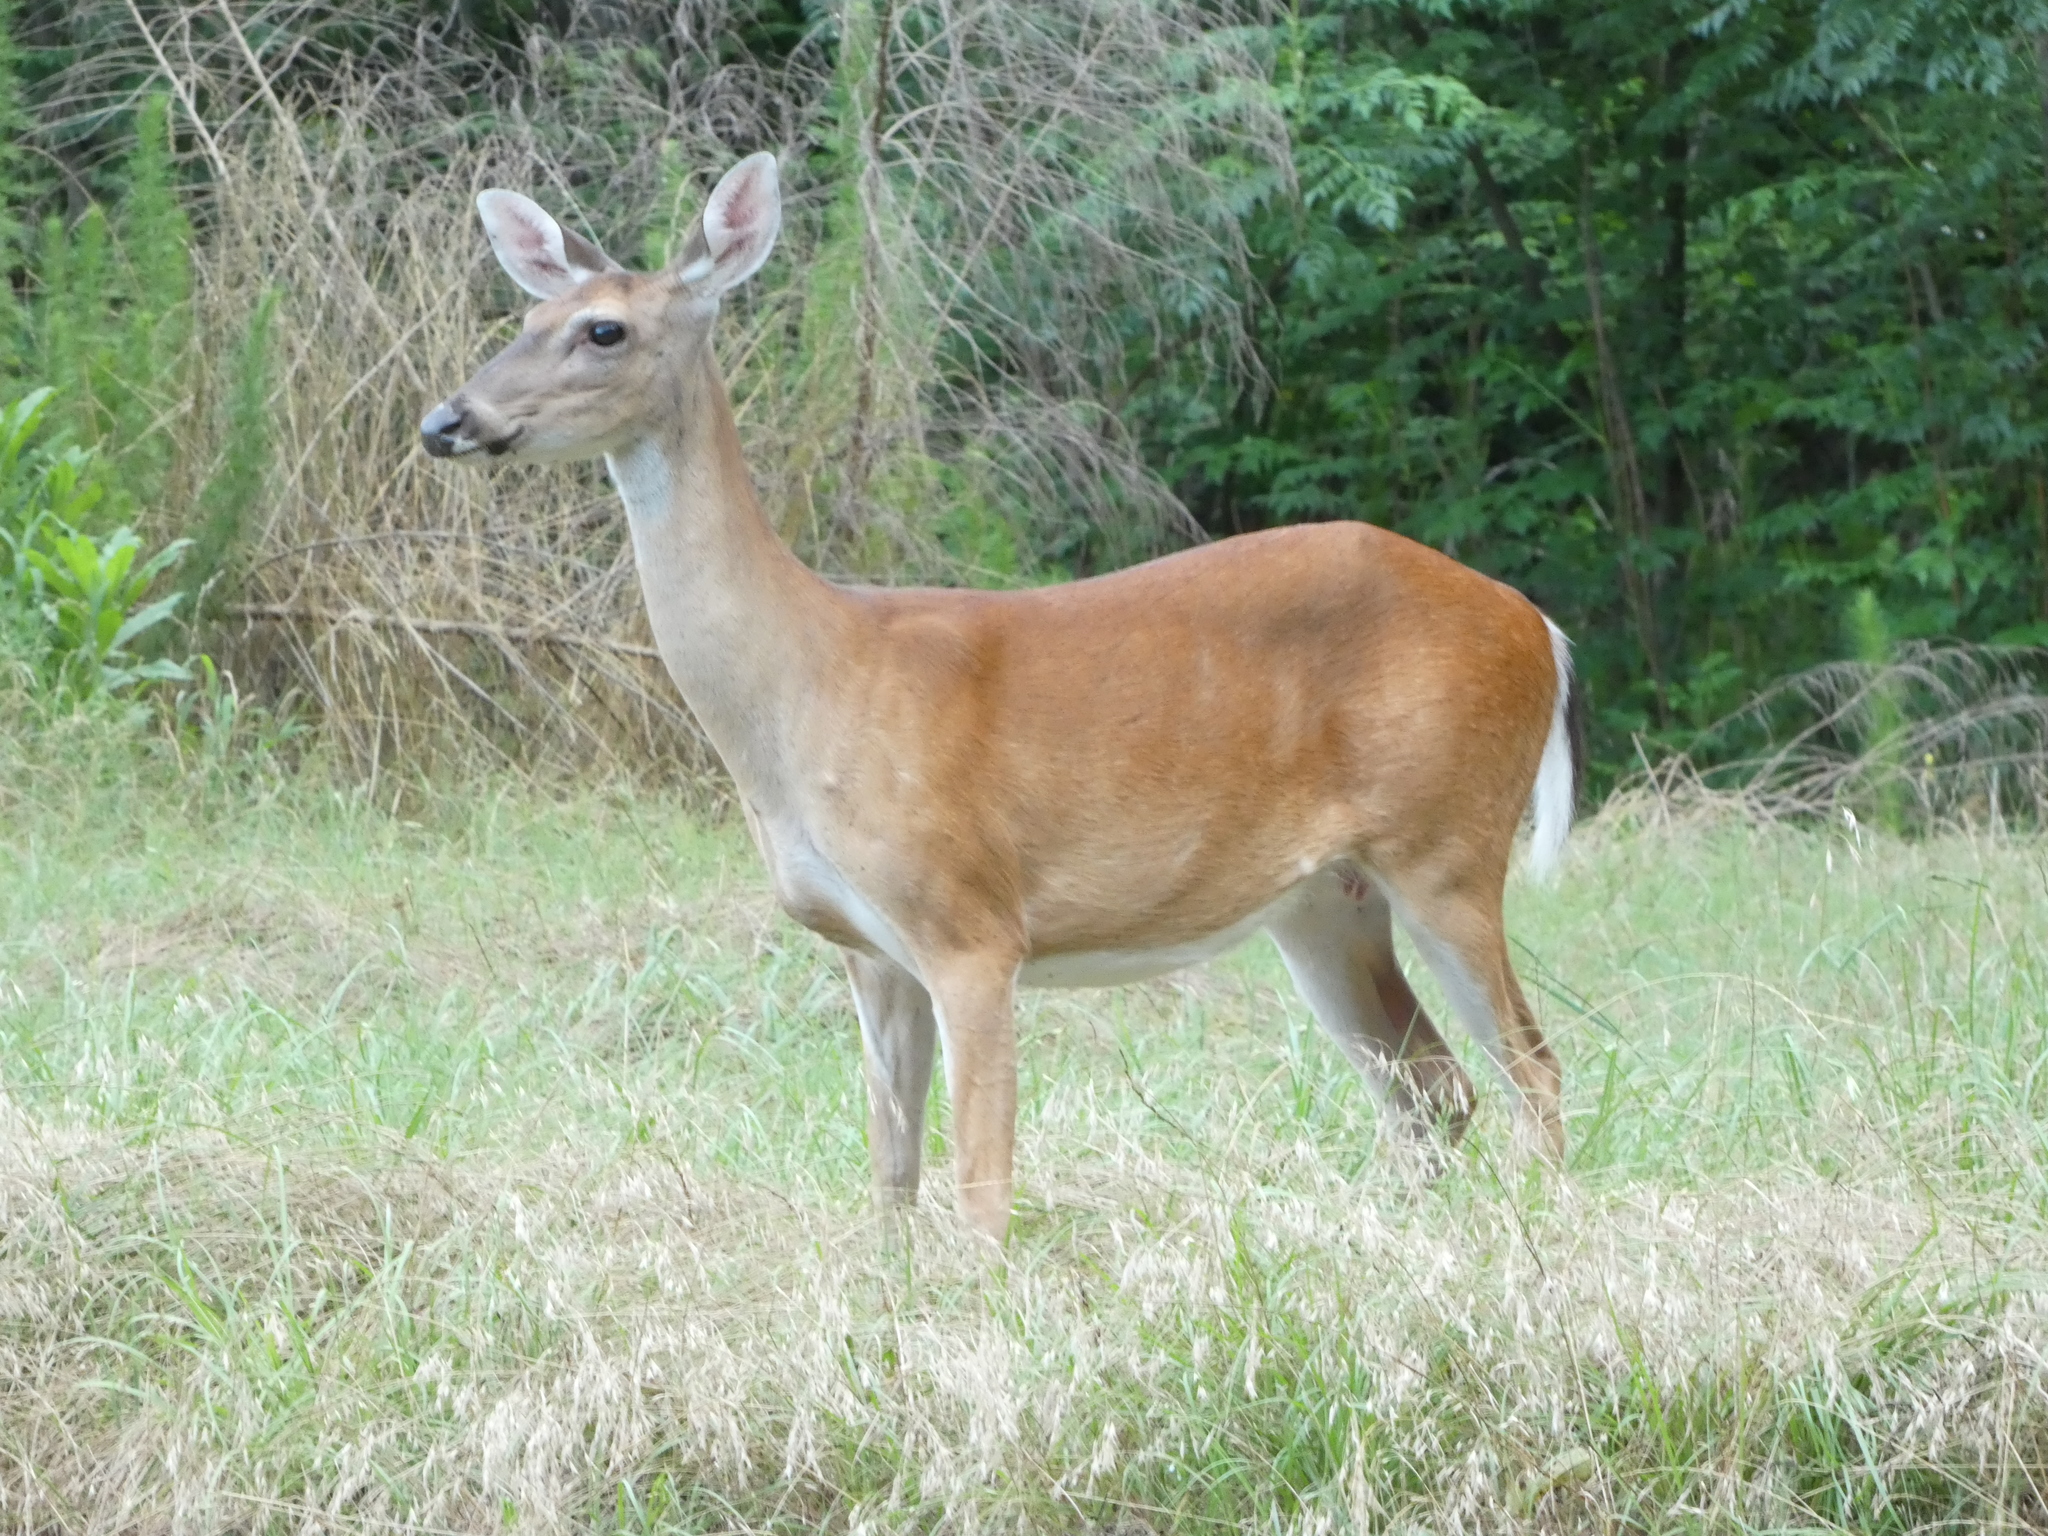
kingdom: Animalia
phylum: Chordata
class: Mammalia
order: Artiodactyla
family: Cervidae
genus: Odocoileus
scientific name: Odocoileus virginianus
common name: White-tailed deer
